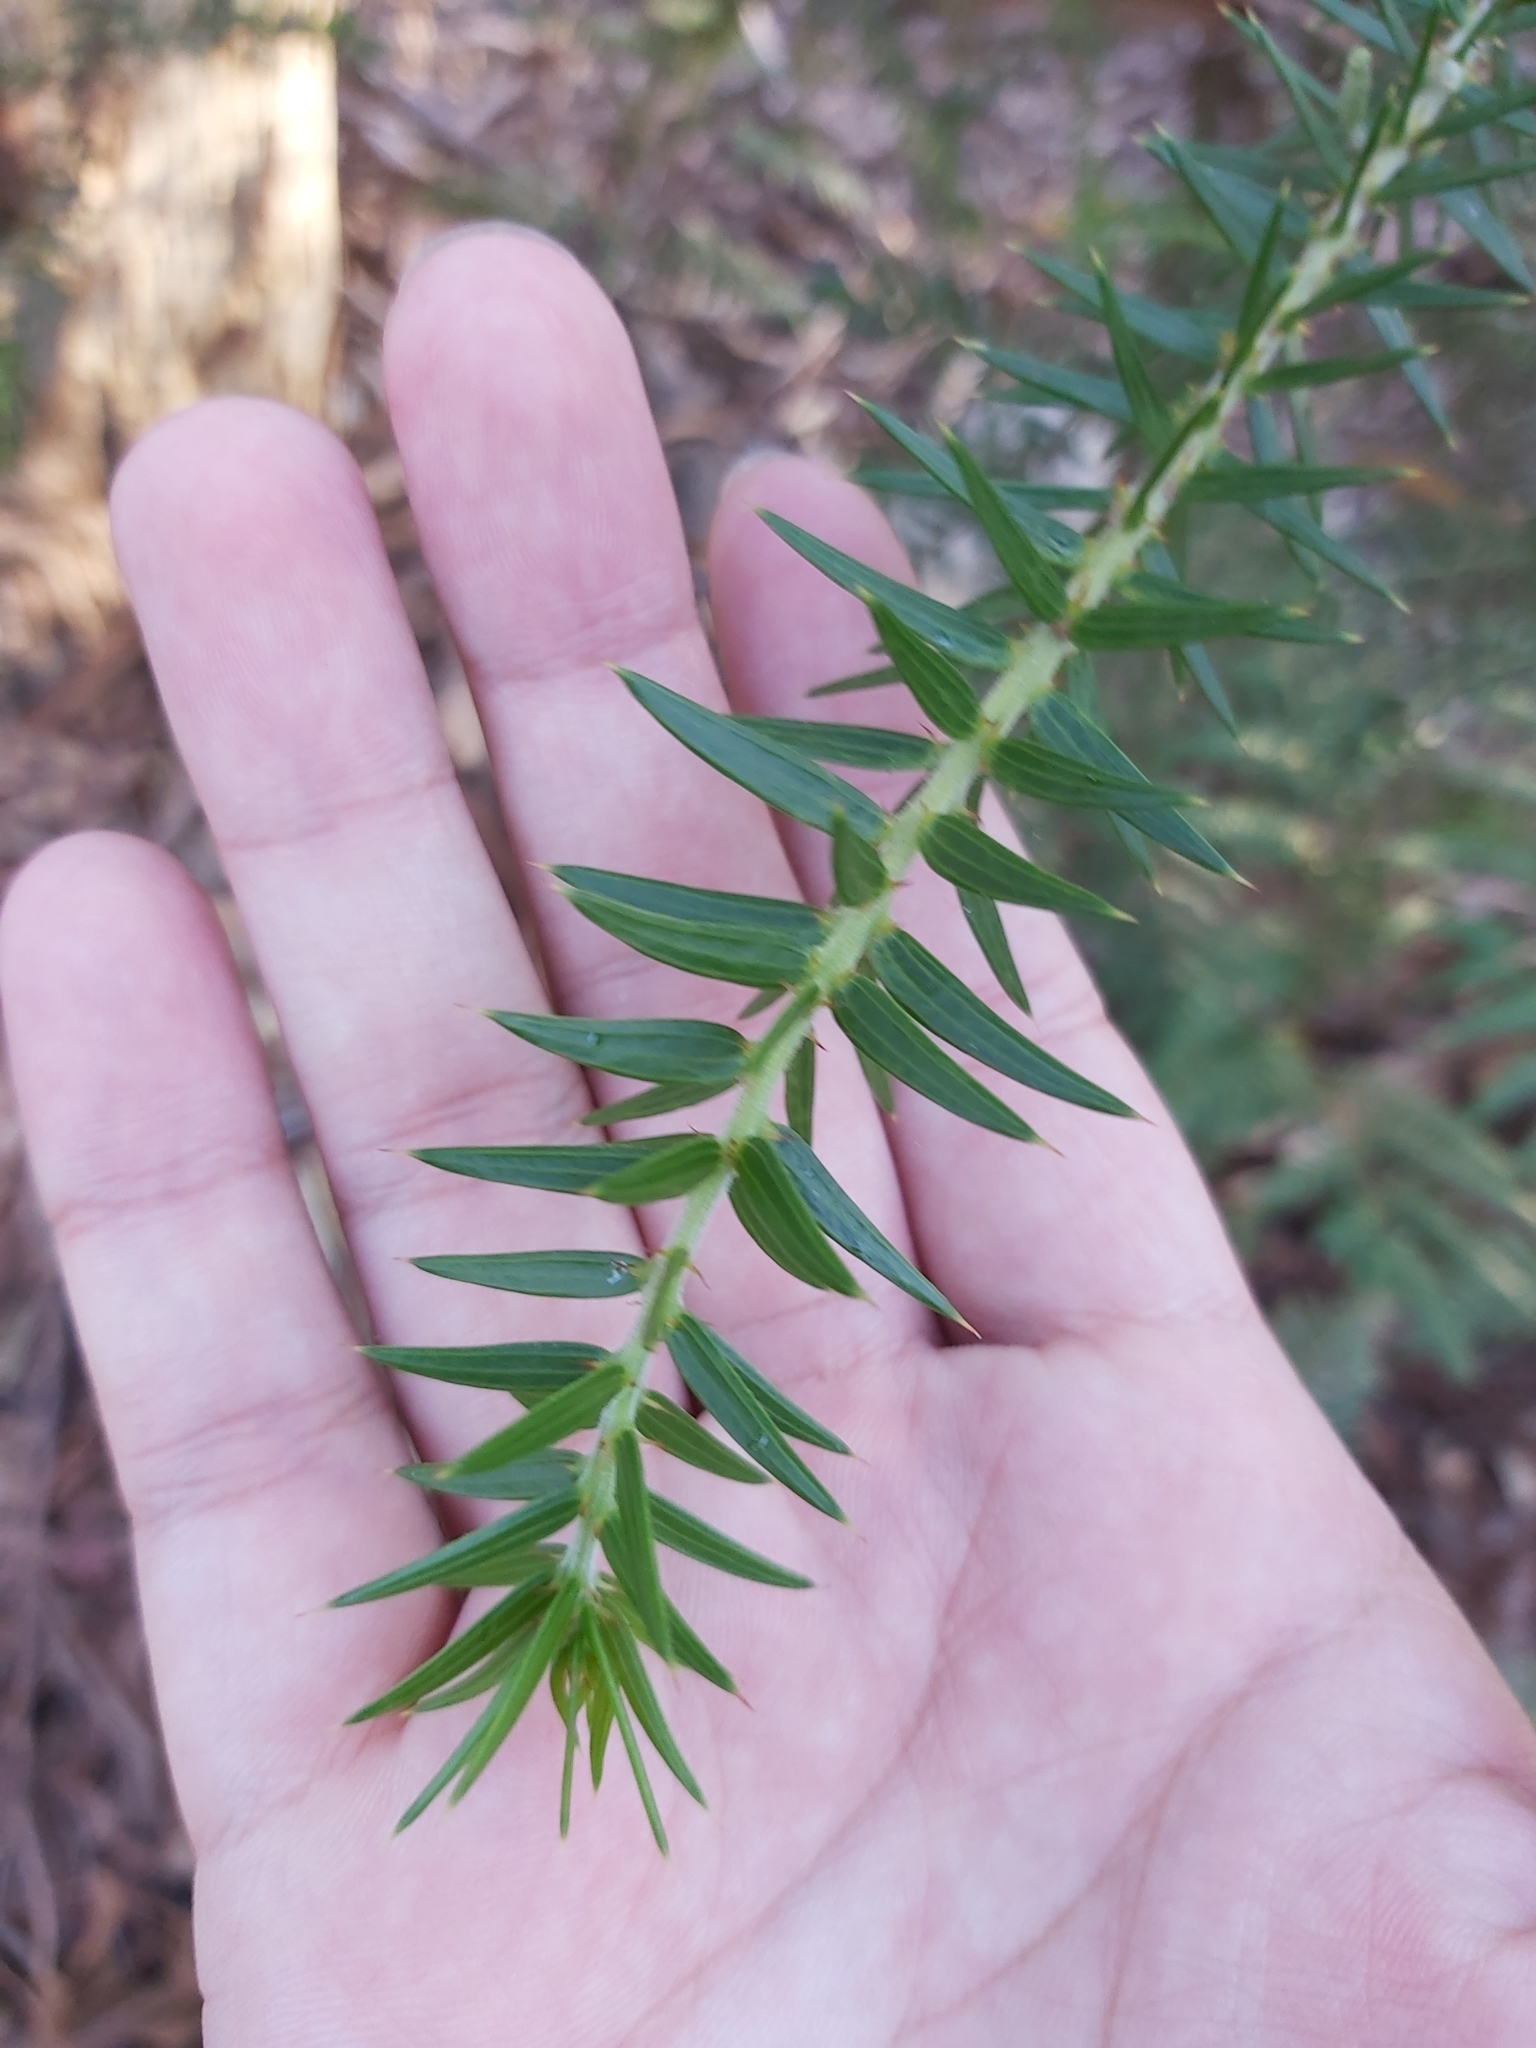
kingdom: Plantae
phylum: Tracheophyta
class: Magnoliopsida
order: Fabales
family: Fabaceae
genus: Acacia
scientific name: Acacia oxycedrus
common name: Spike wattle
